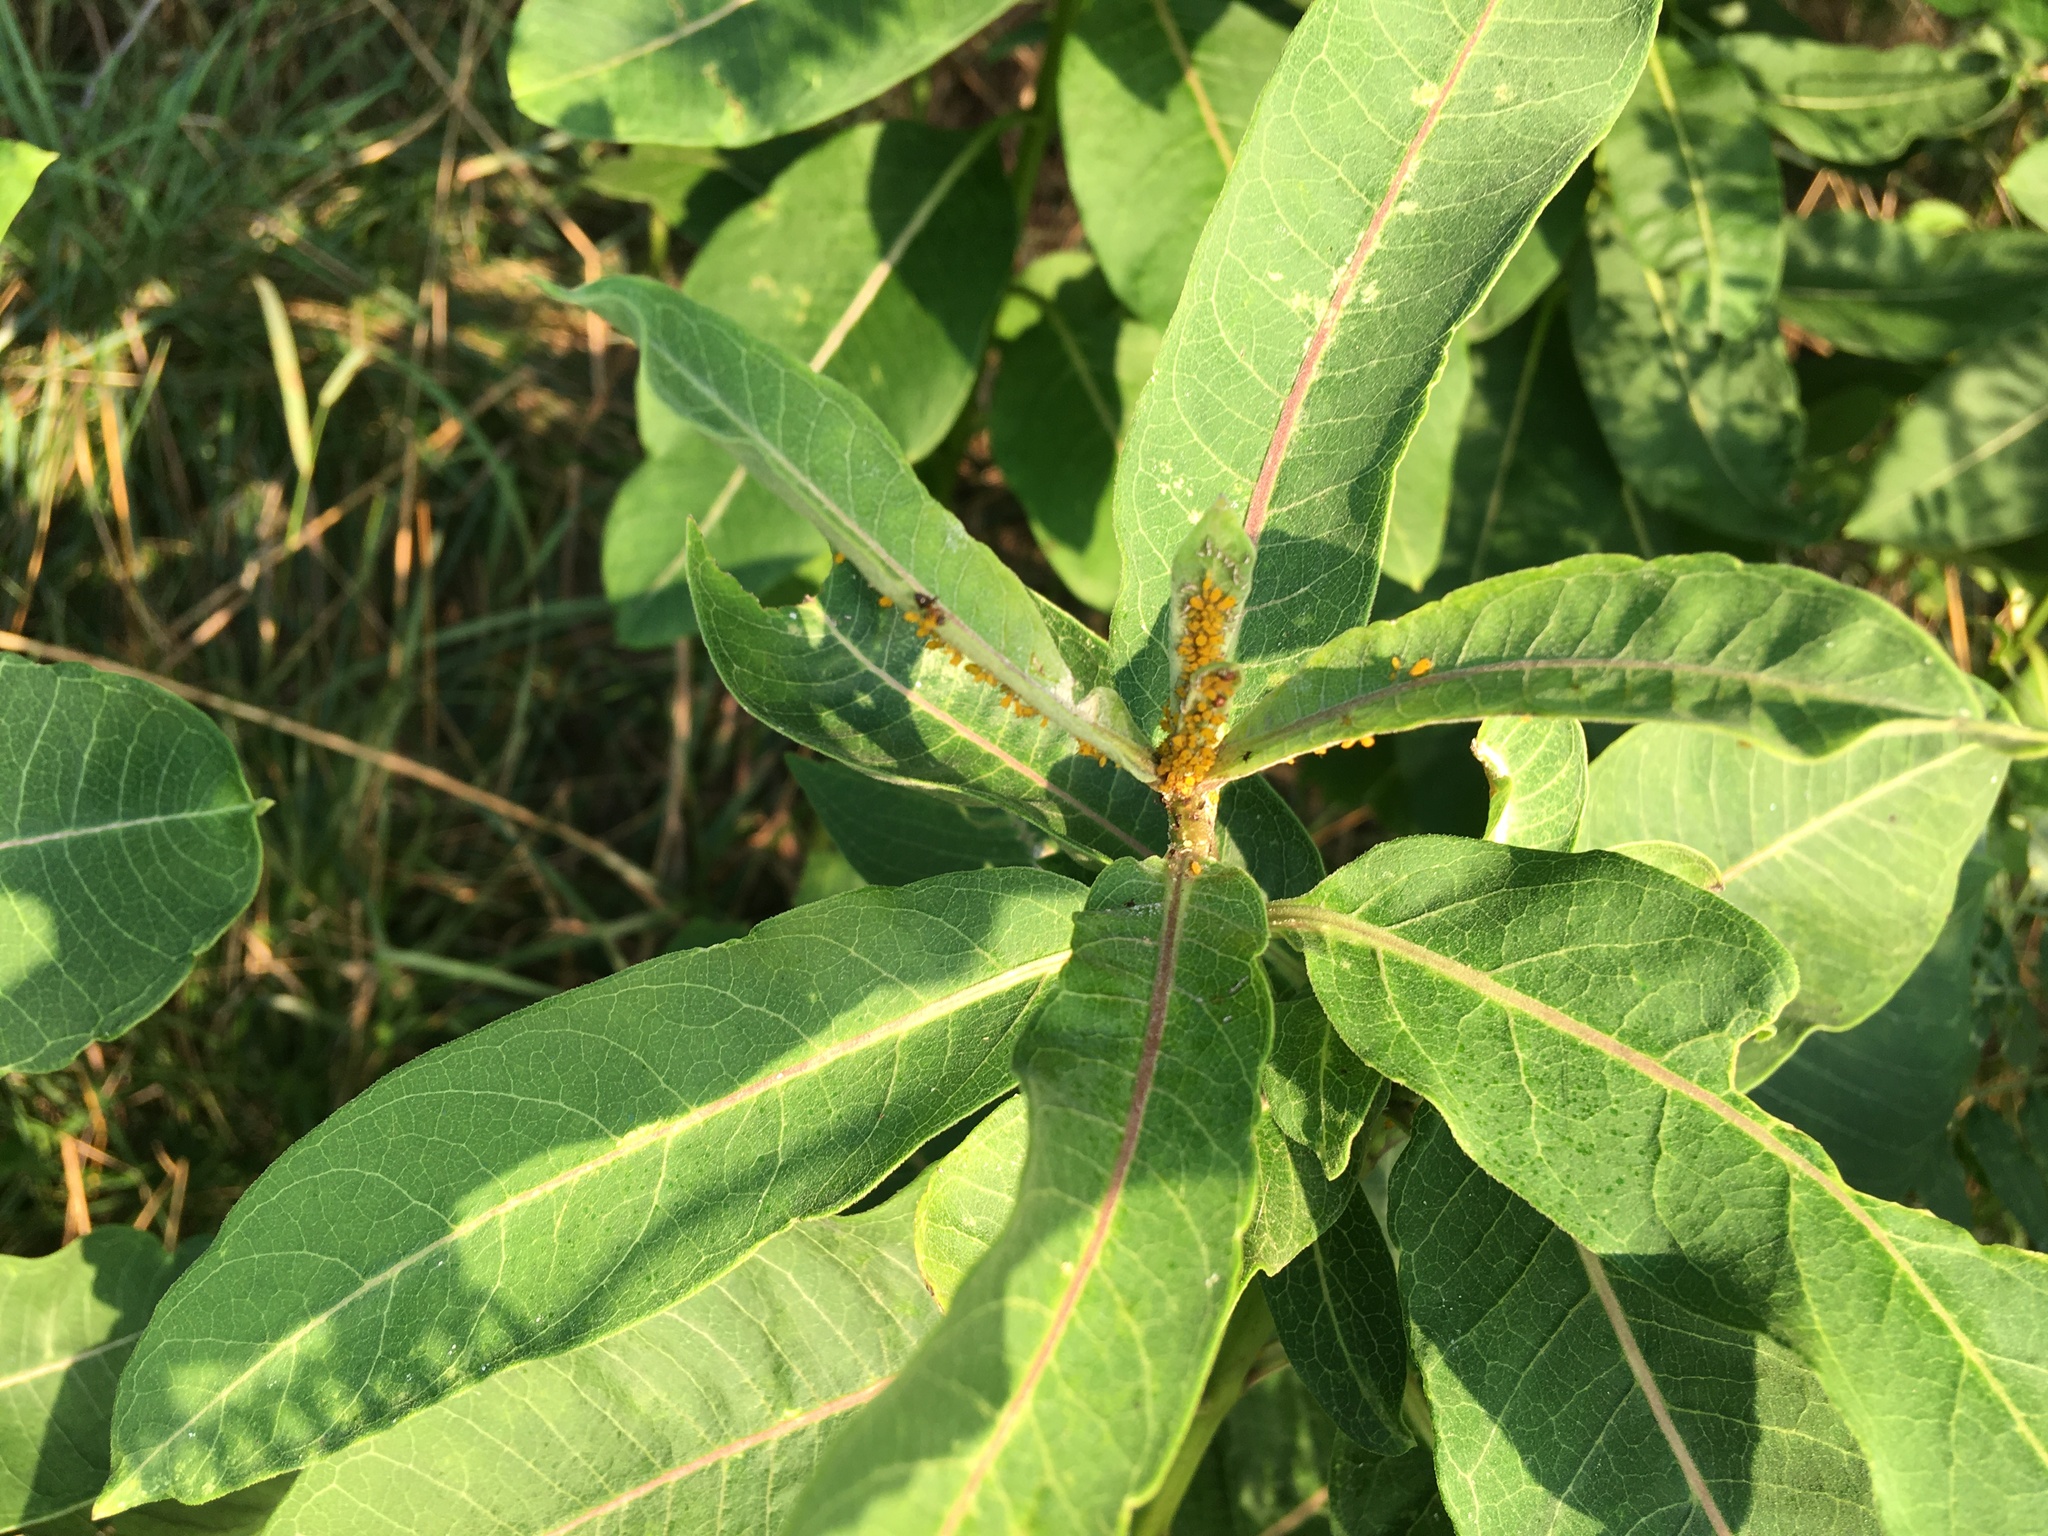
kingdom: Plantae
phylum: Tracheophyta
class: Magnoliopsida
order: Gentianales
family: Apocynaceae
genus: Asclepias
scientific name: Asclepias syriaca
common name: Common milkweed
